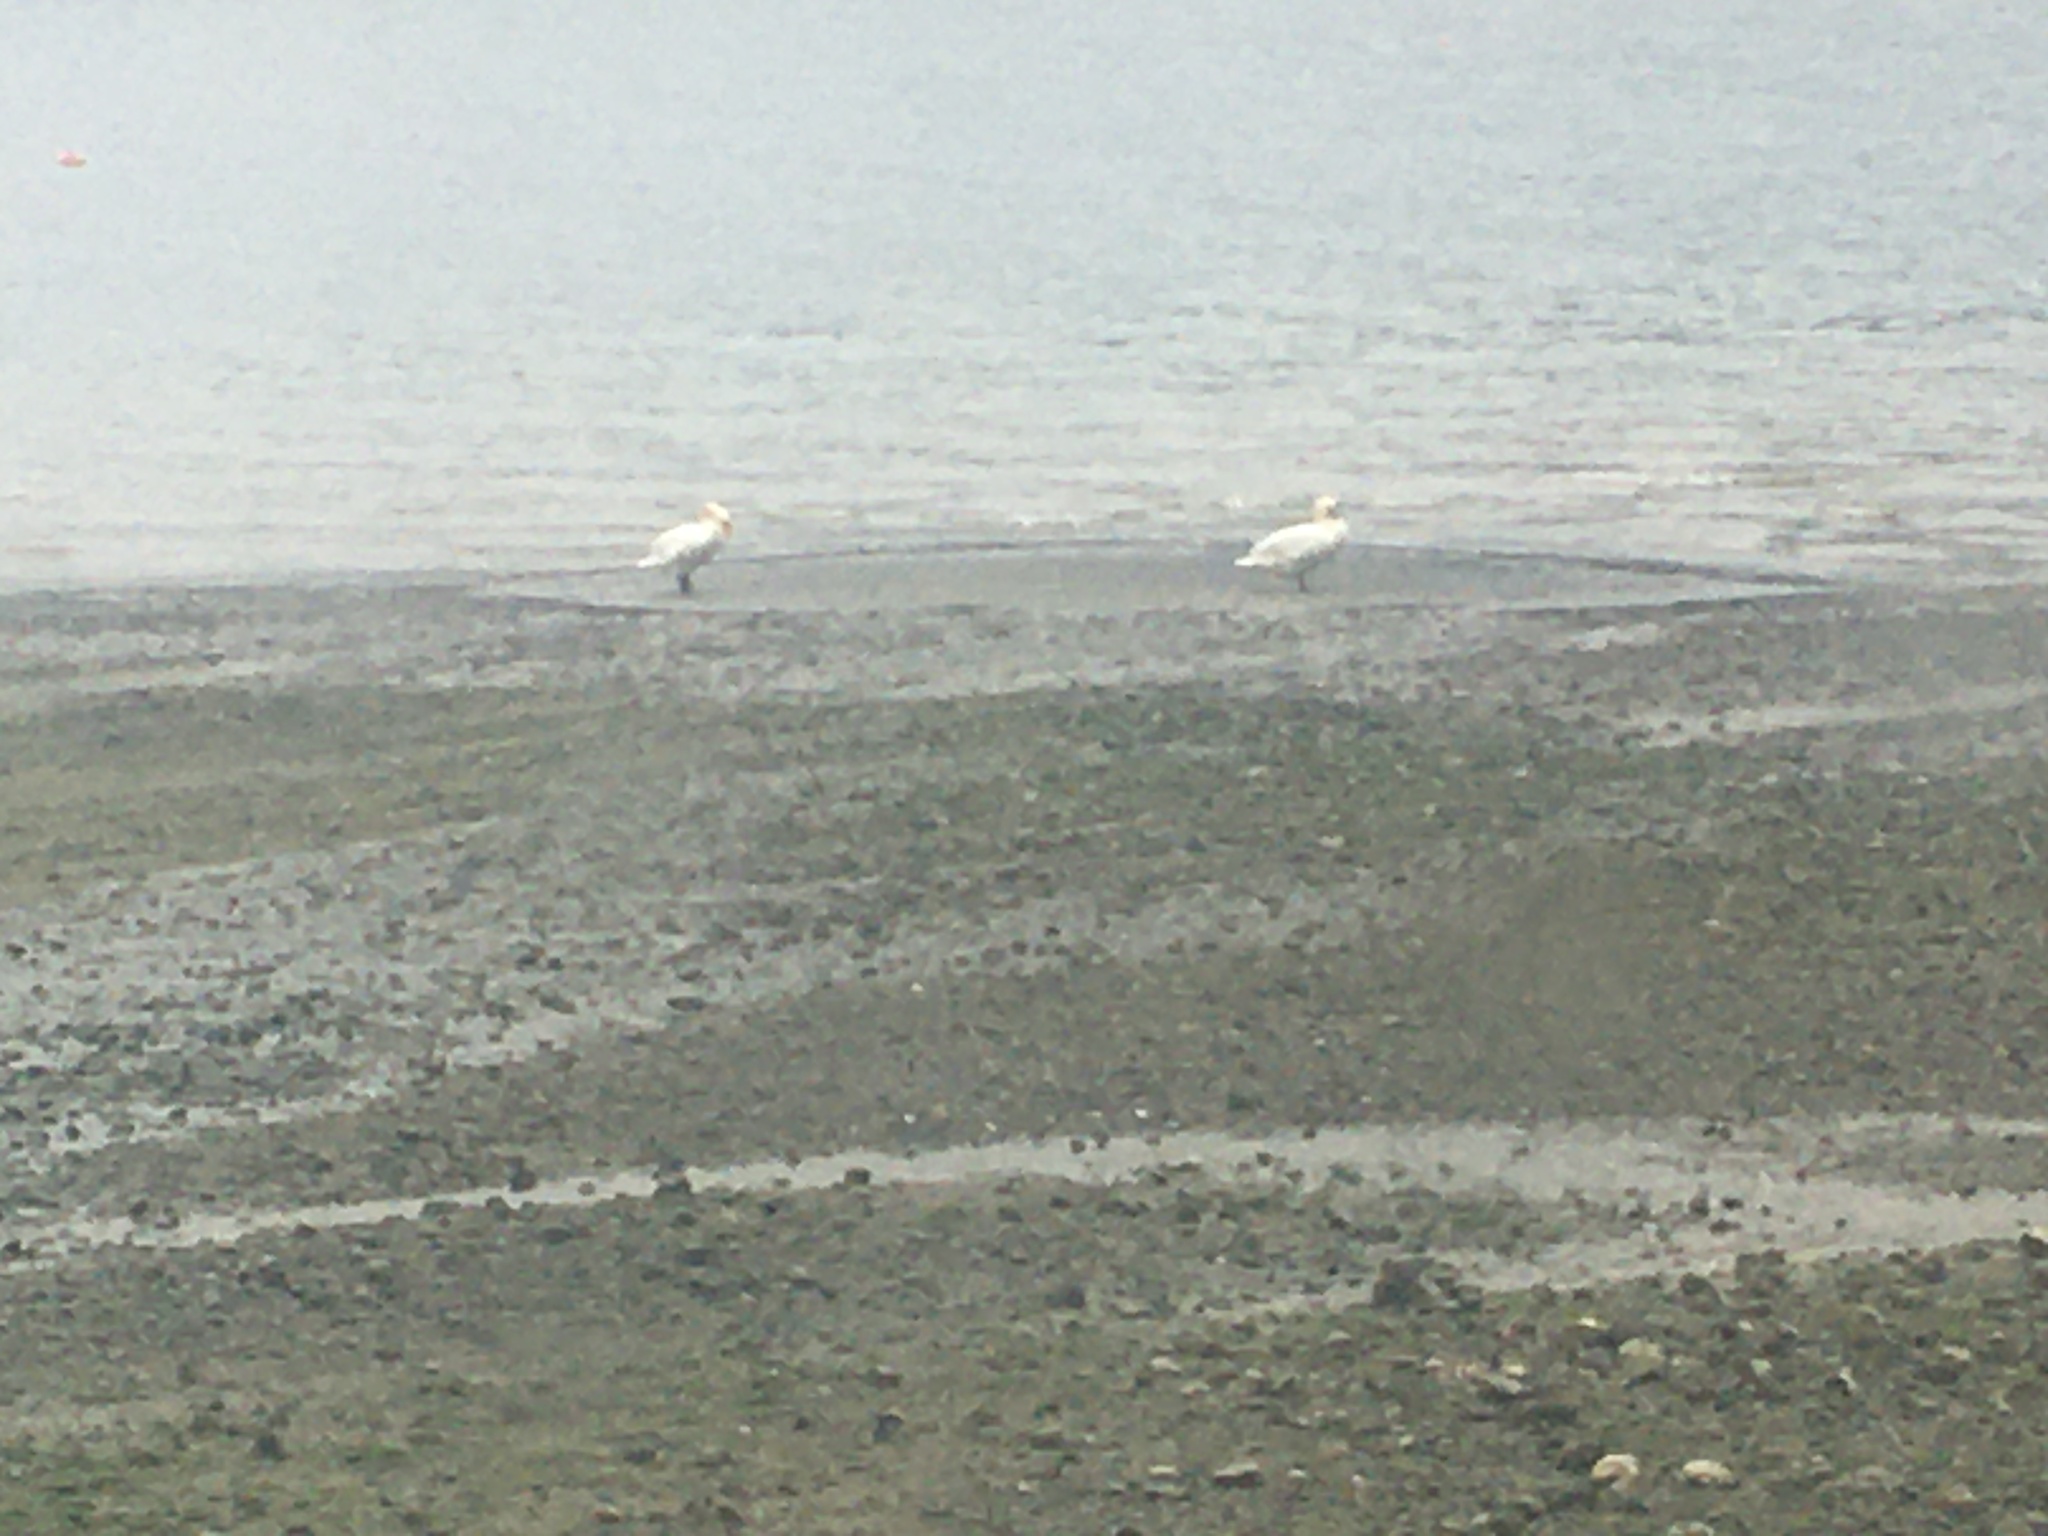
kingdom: Animalia
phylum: Chordata
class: Aves
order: Anseriformes
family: Anatidae
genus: Cygnus
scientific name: Cygnus olor
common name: Mute swan
